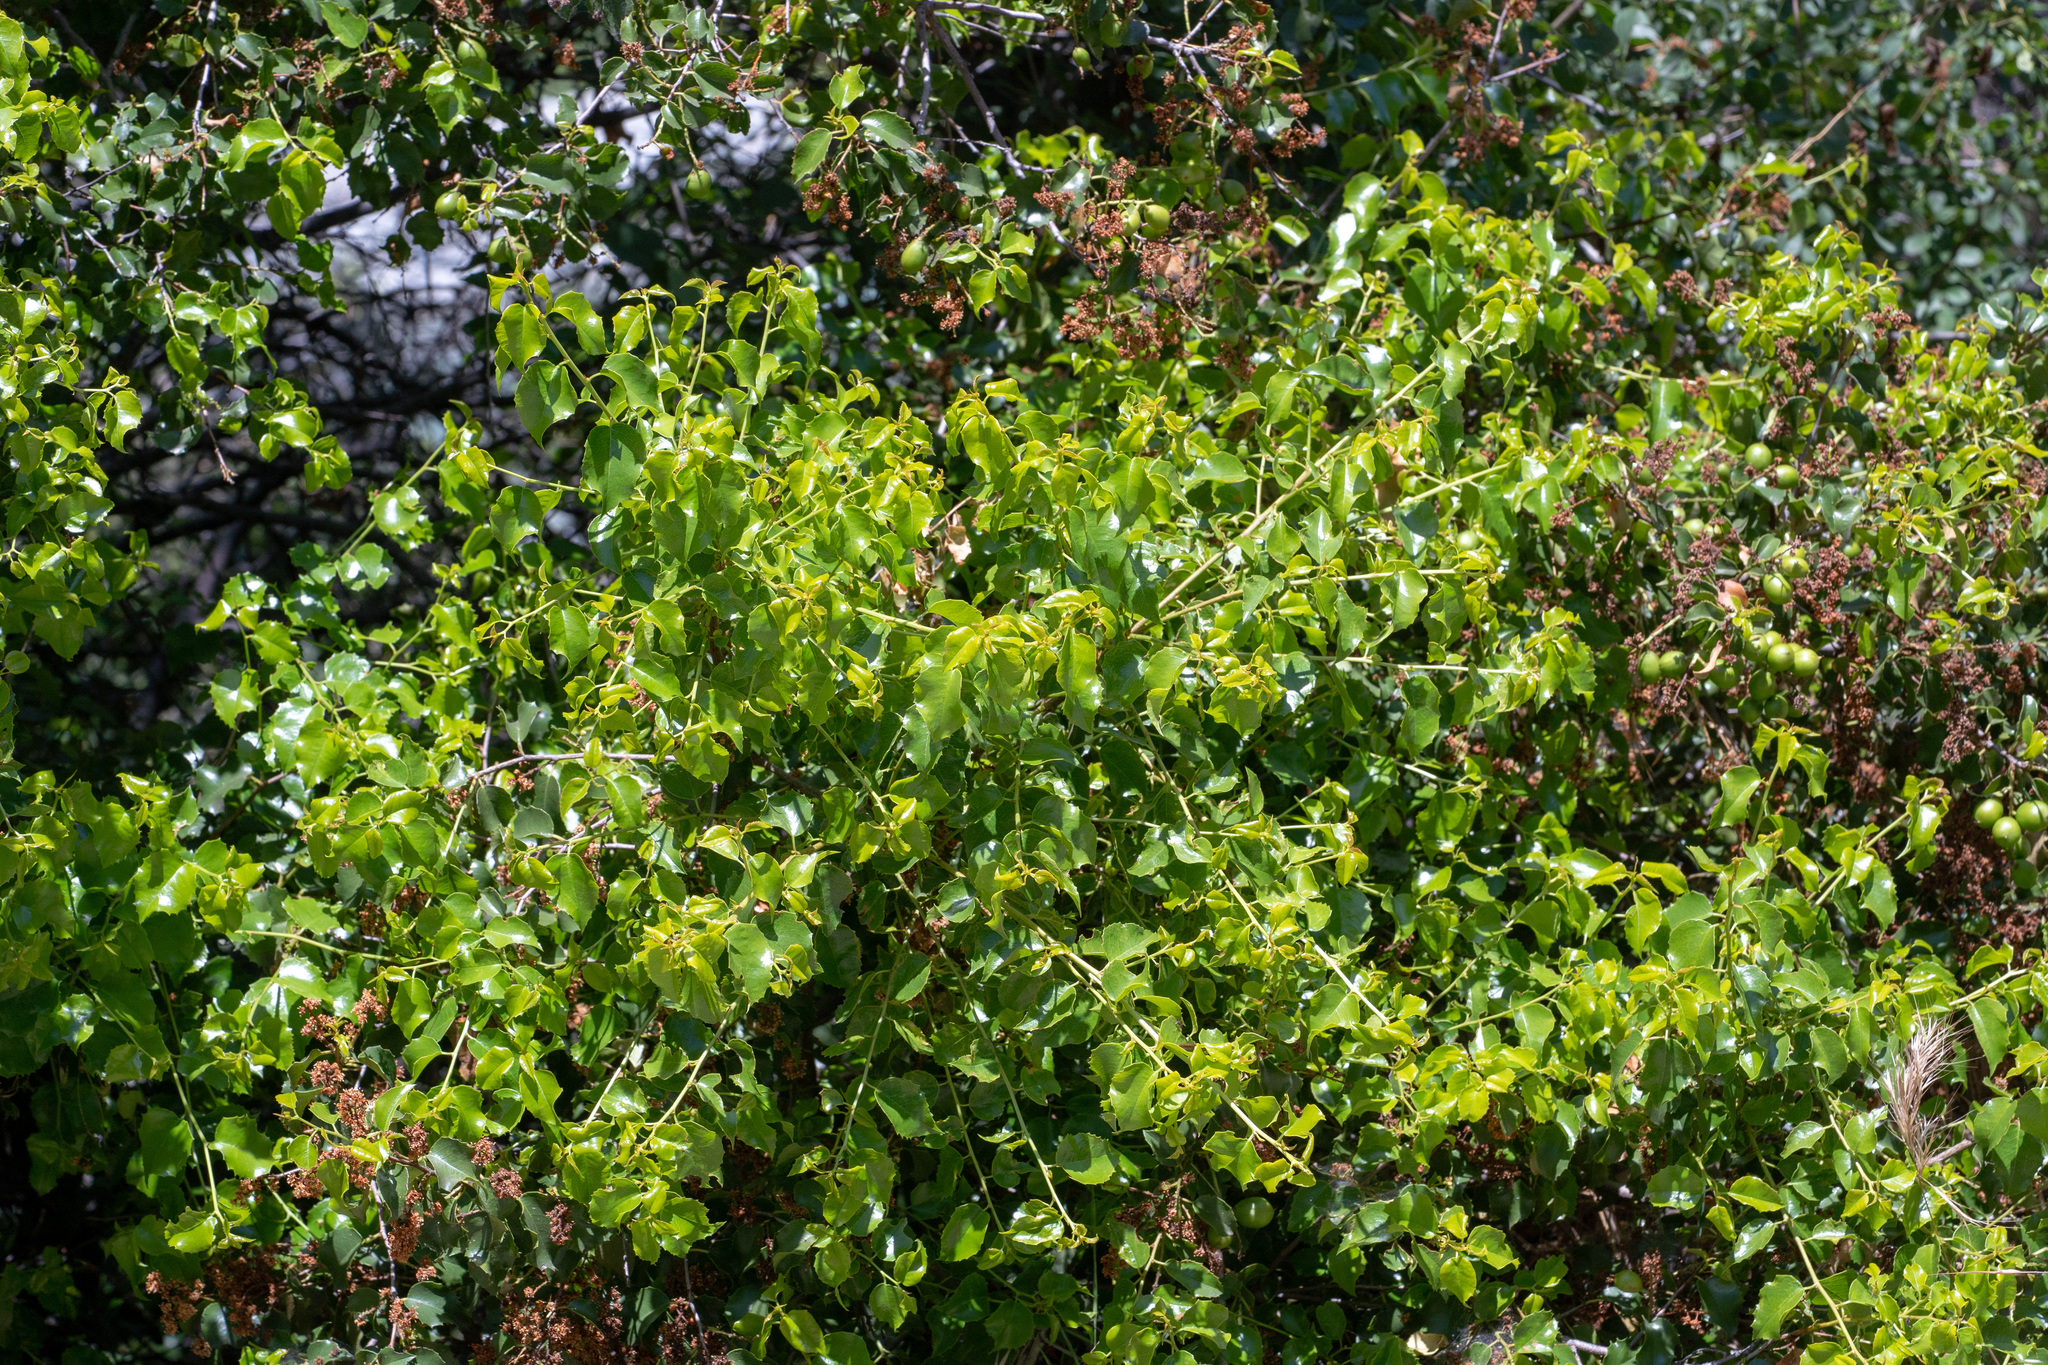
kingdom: Plantae
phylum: Tracheophyta
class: Magnoliopsida
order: Rosales
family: Rosaceae
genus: Prunus
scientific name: Prunus ilicifolia
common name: Hollyleaf cherry
